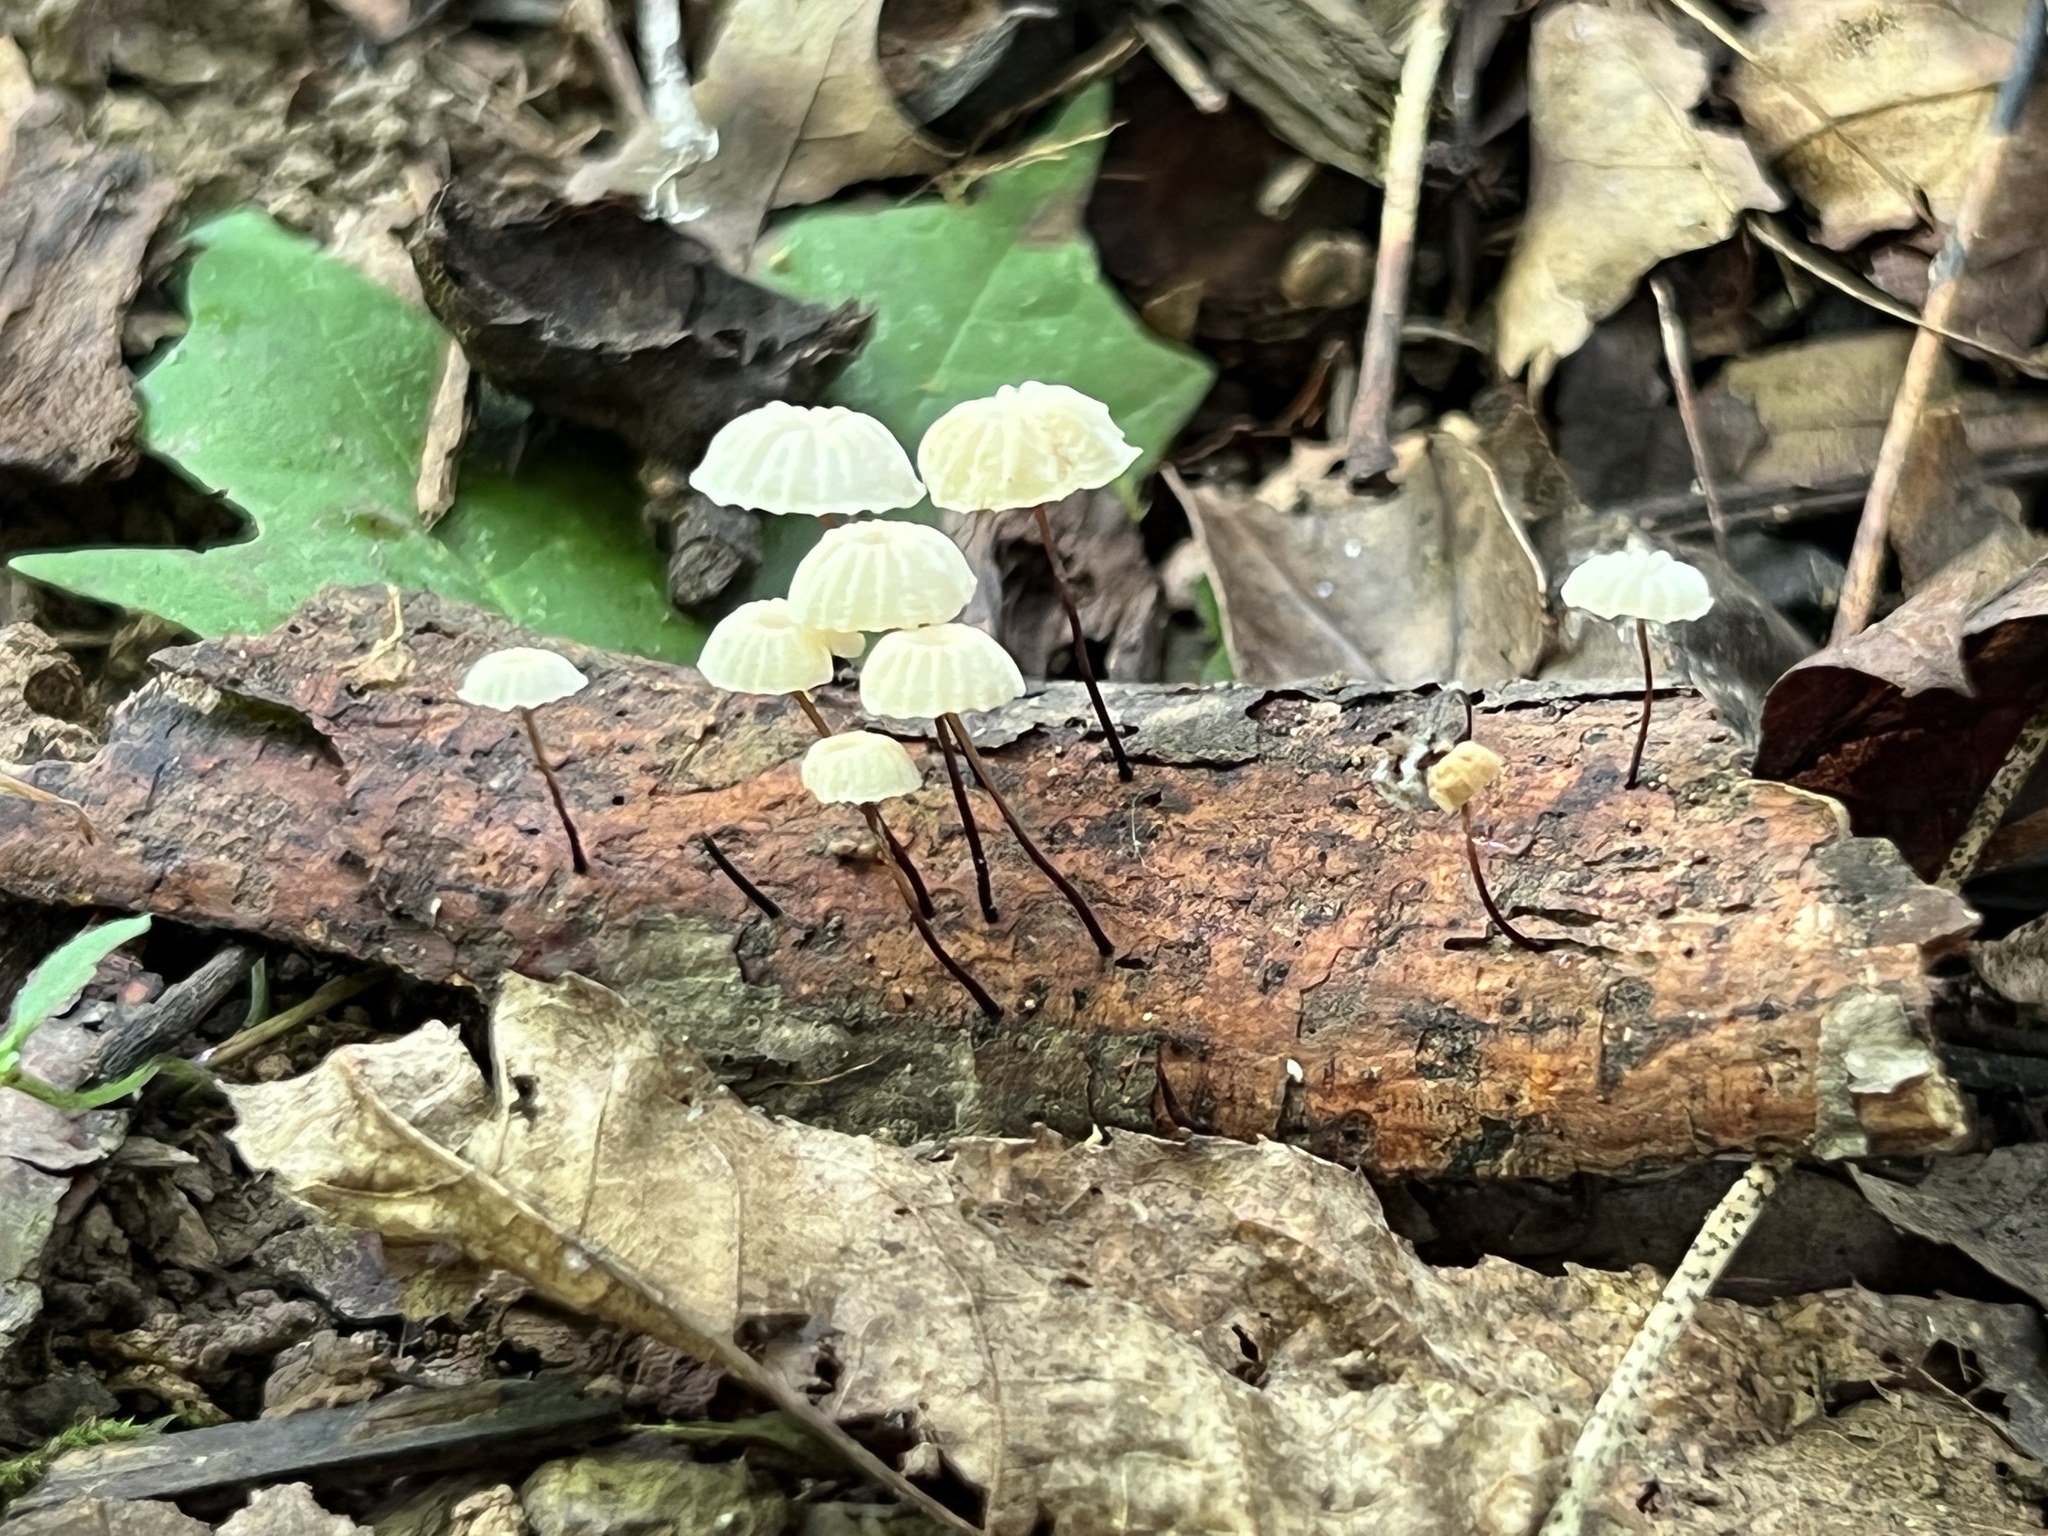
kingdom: Fungi
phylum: Basidiomycota
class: Agaricomycetes
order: Agaricales
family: Marasmiaceae
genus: Marasmius
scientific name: Marasmius capillaris
